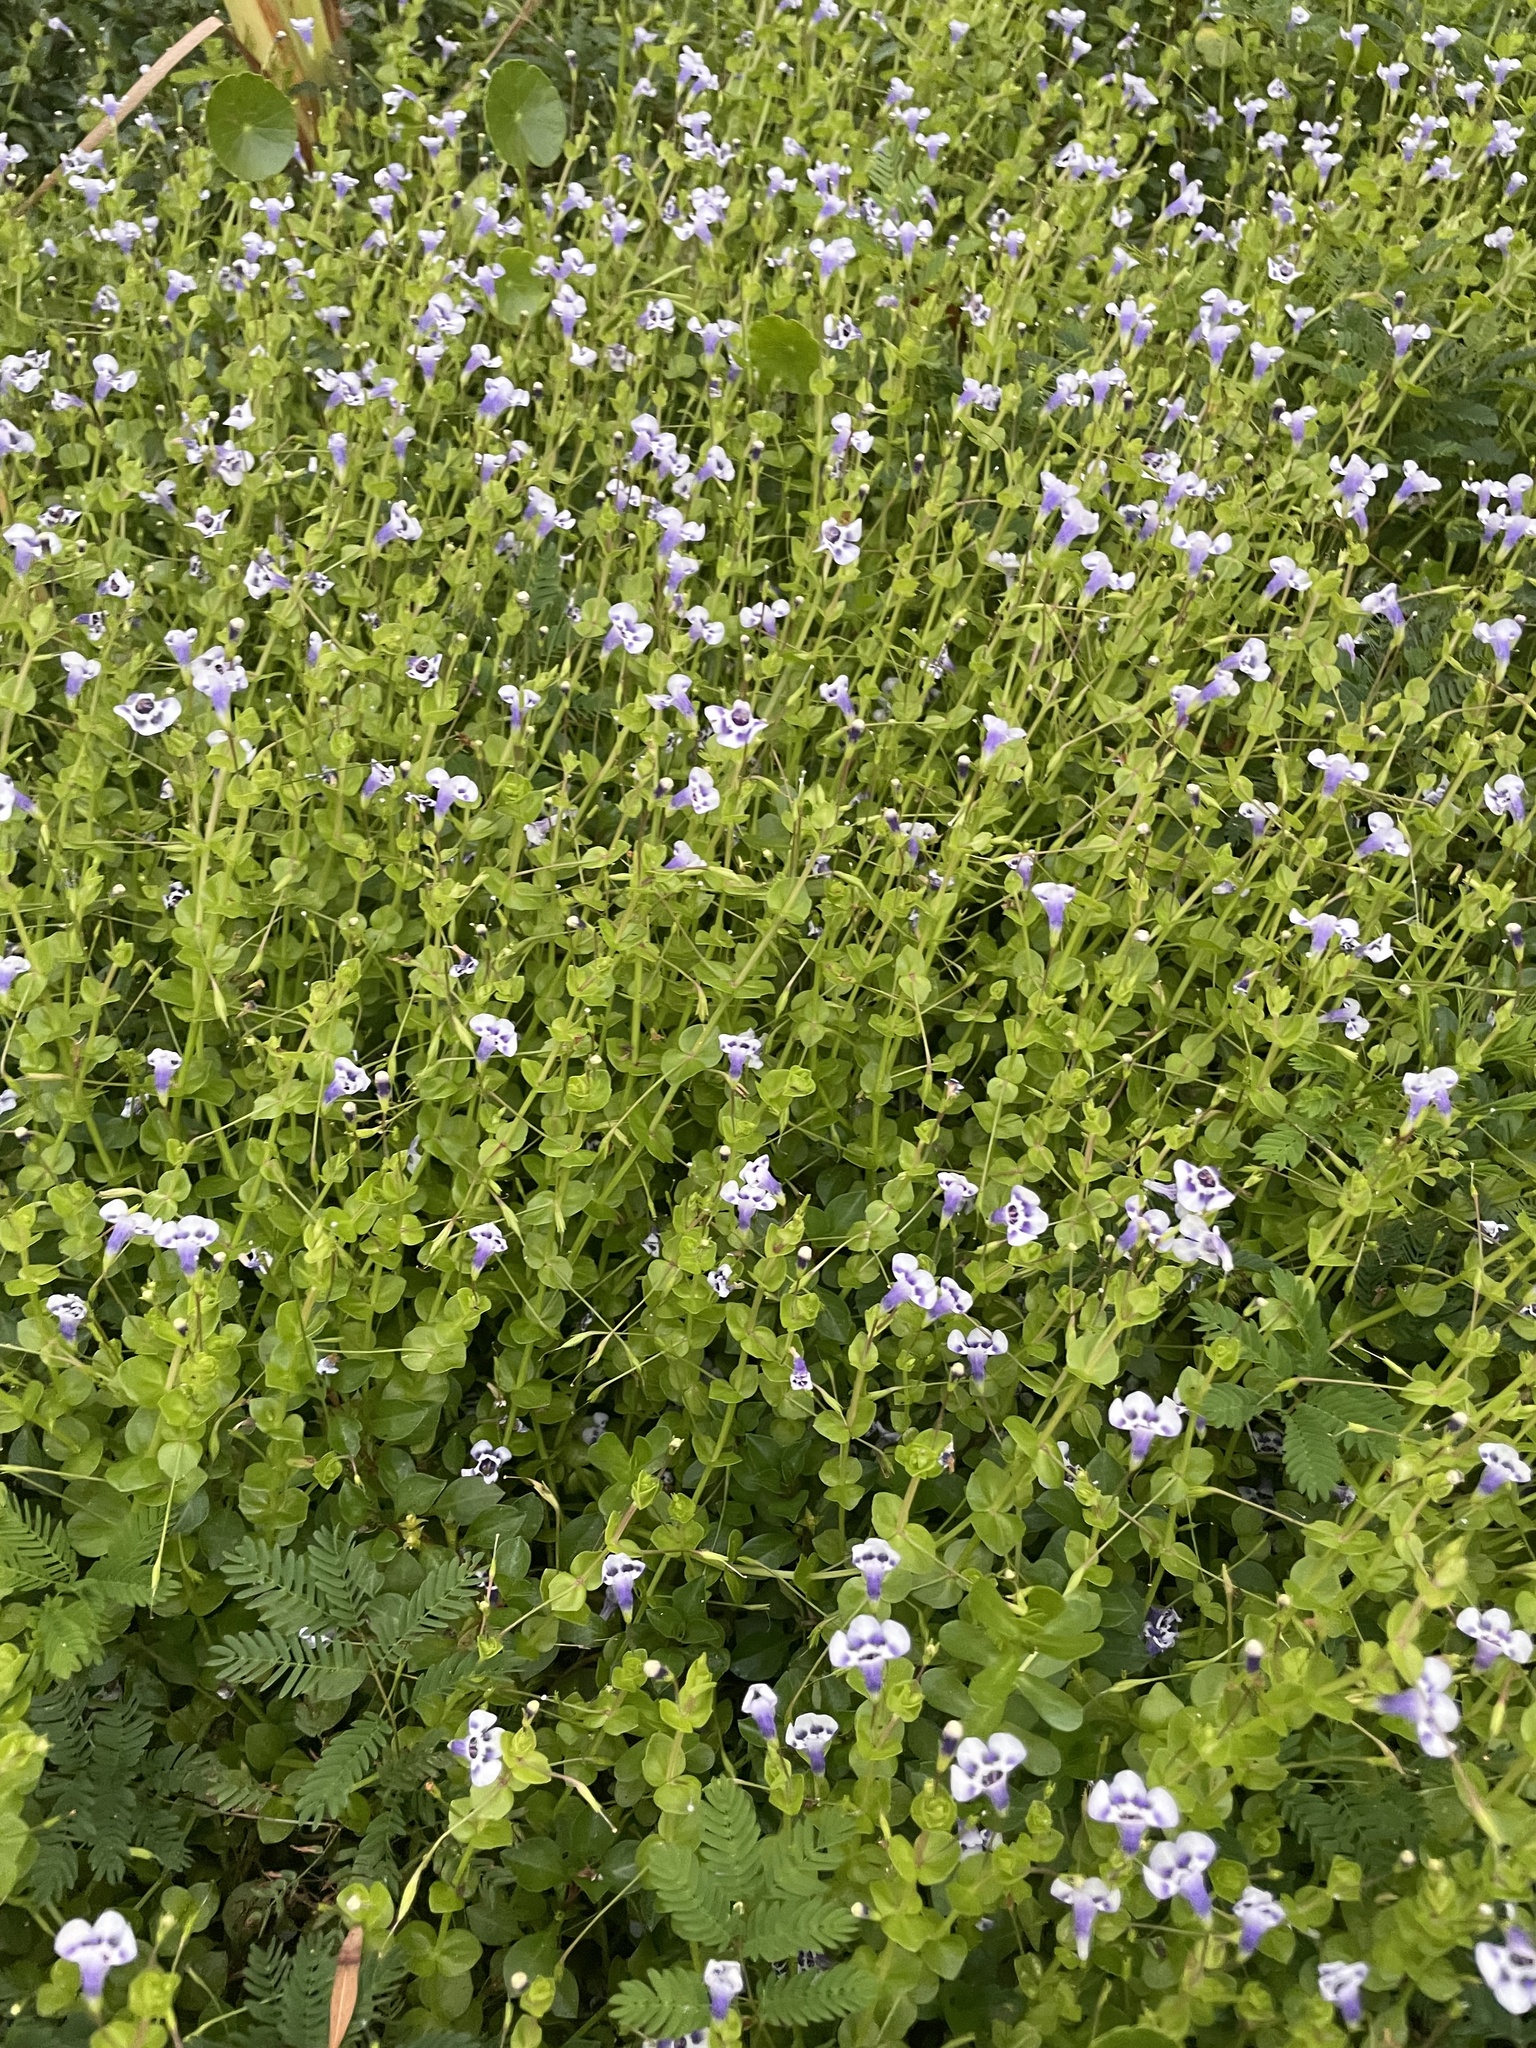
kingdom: Plantae
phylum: Tracheophyta
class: Magnoliopsida
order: Lamiales
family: Linderniaceae
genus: Lindernia
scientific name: Lindernia grandiflora
